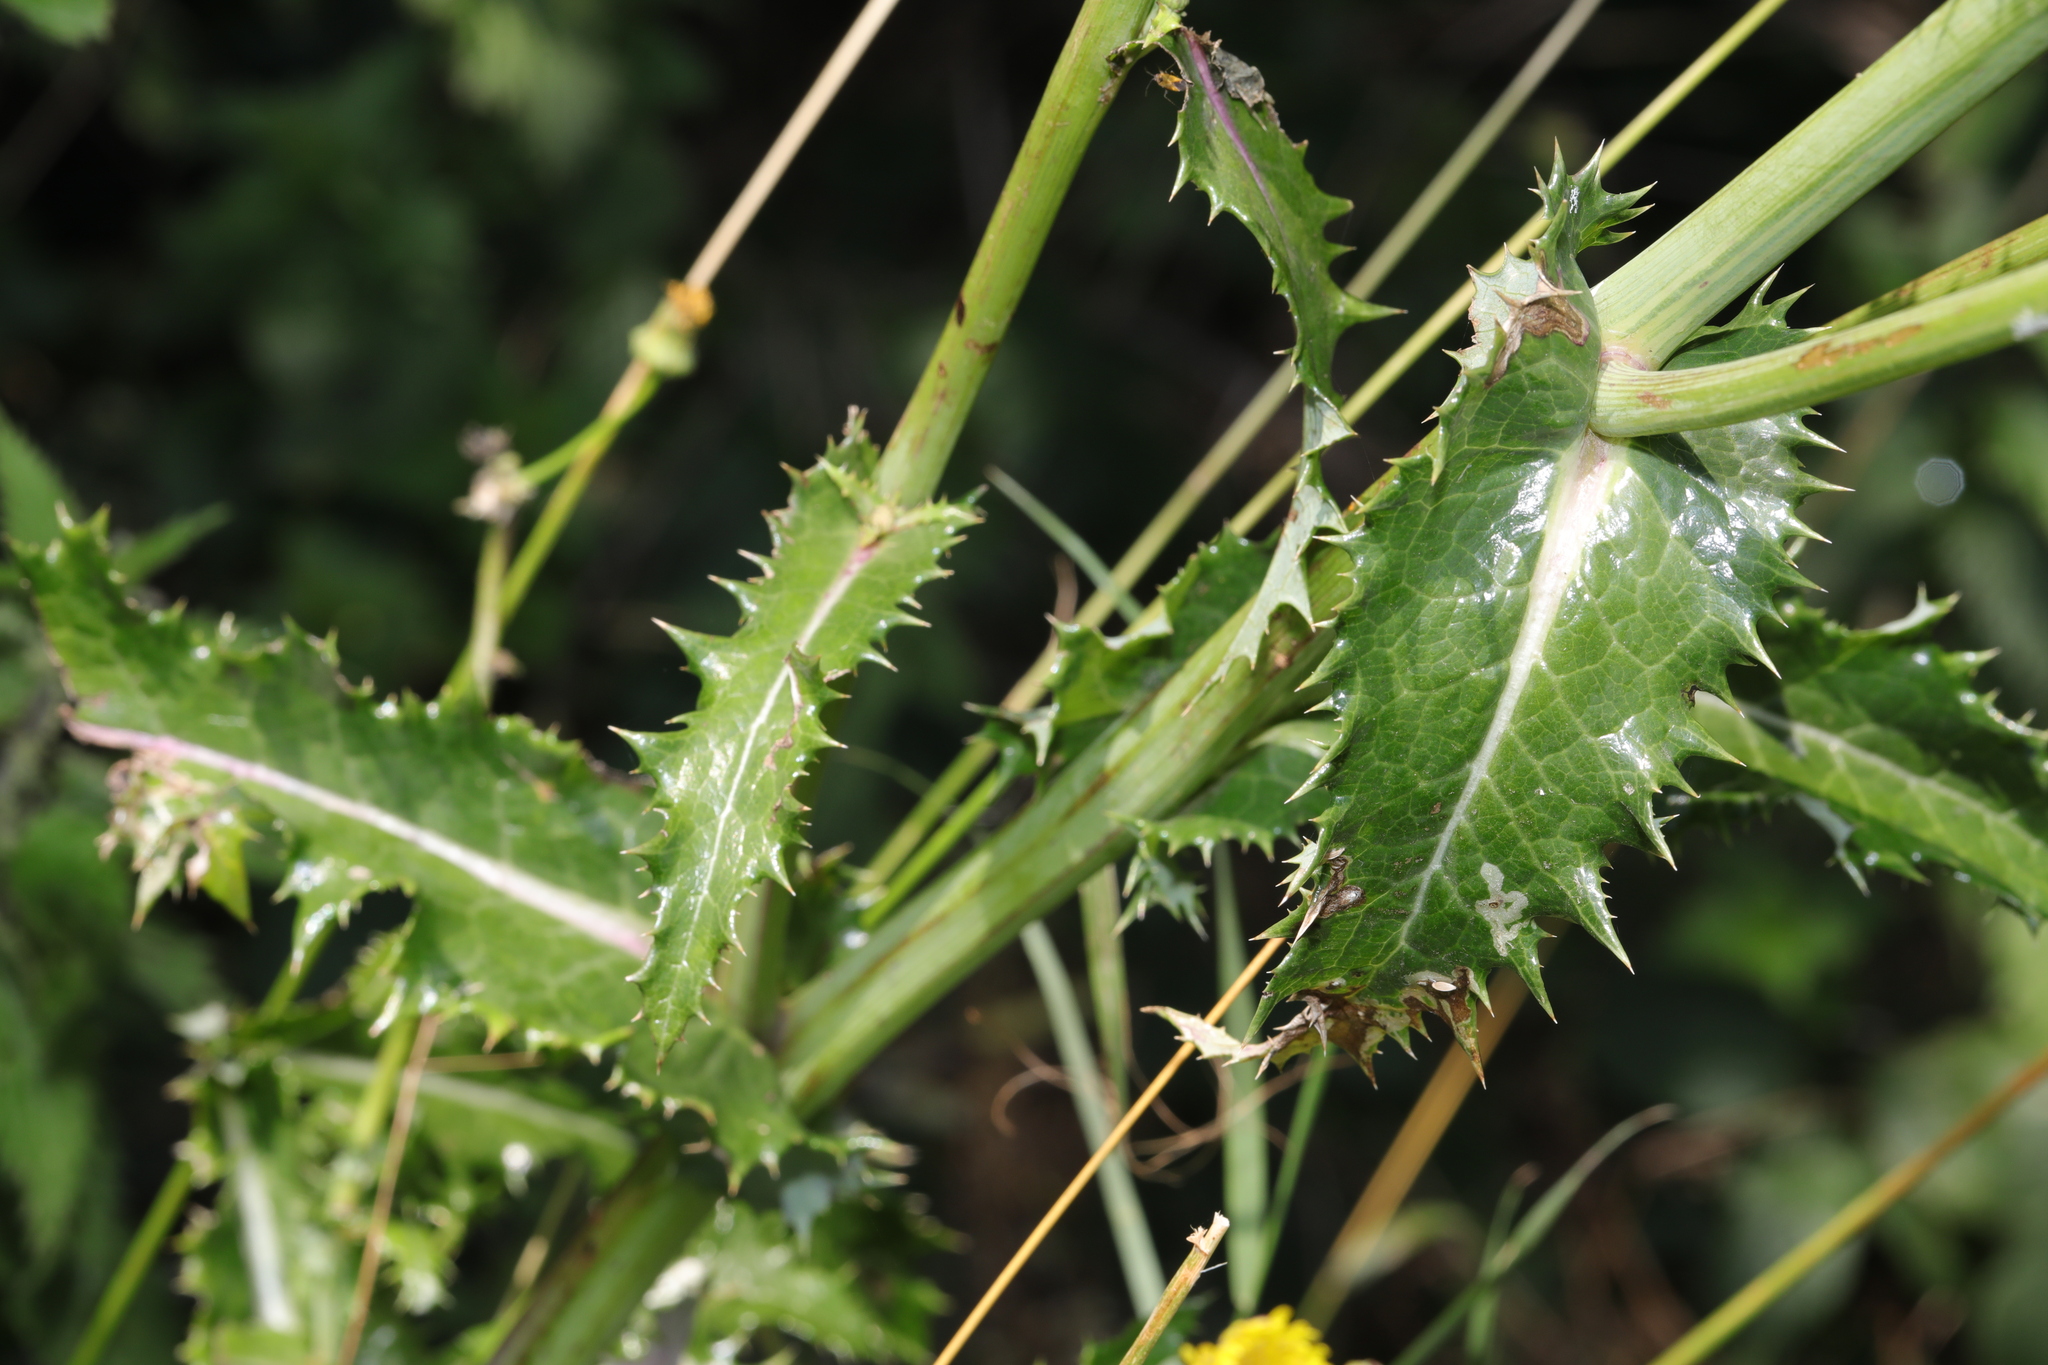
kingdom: Plantae
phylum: Tracheophyta
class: Magnoliopsida
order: Asterales
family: Asteraceae
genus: Sonchus
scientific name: Sonchus asper
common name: Prickly sow-thistle
